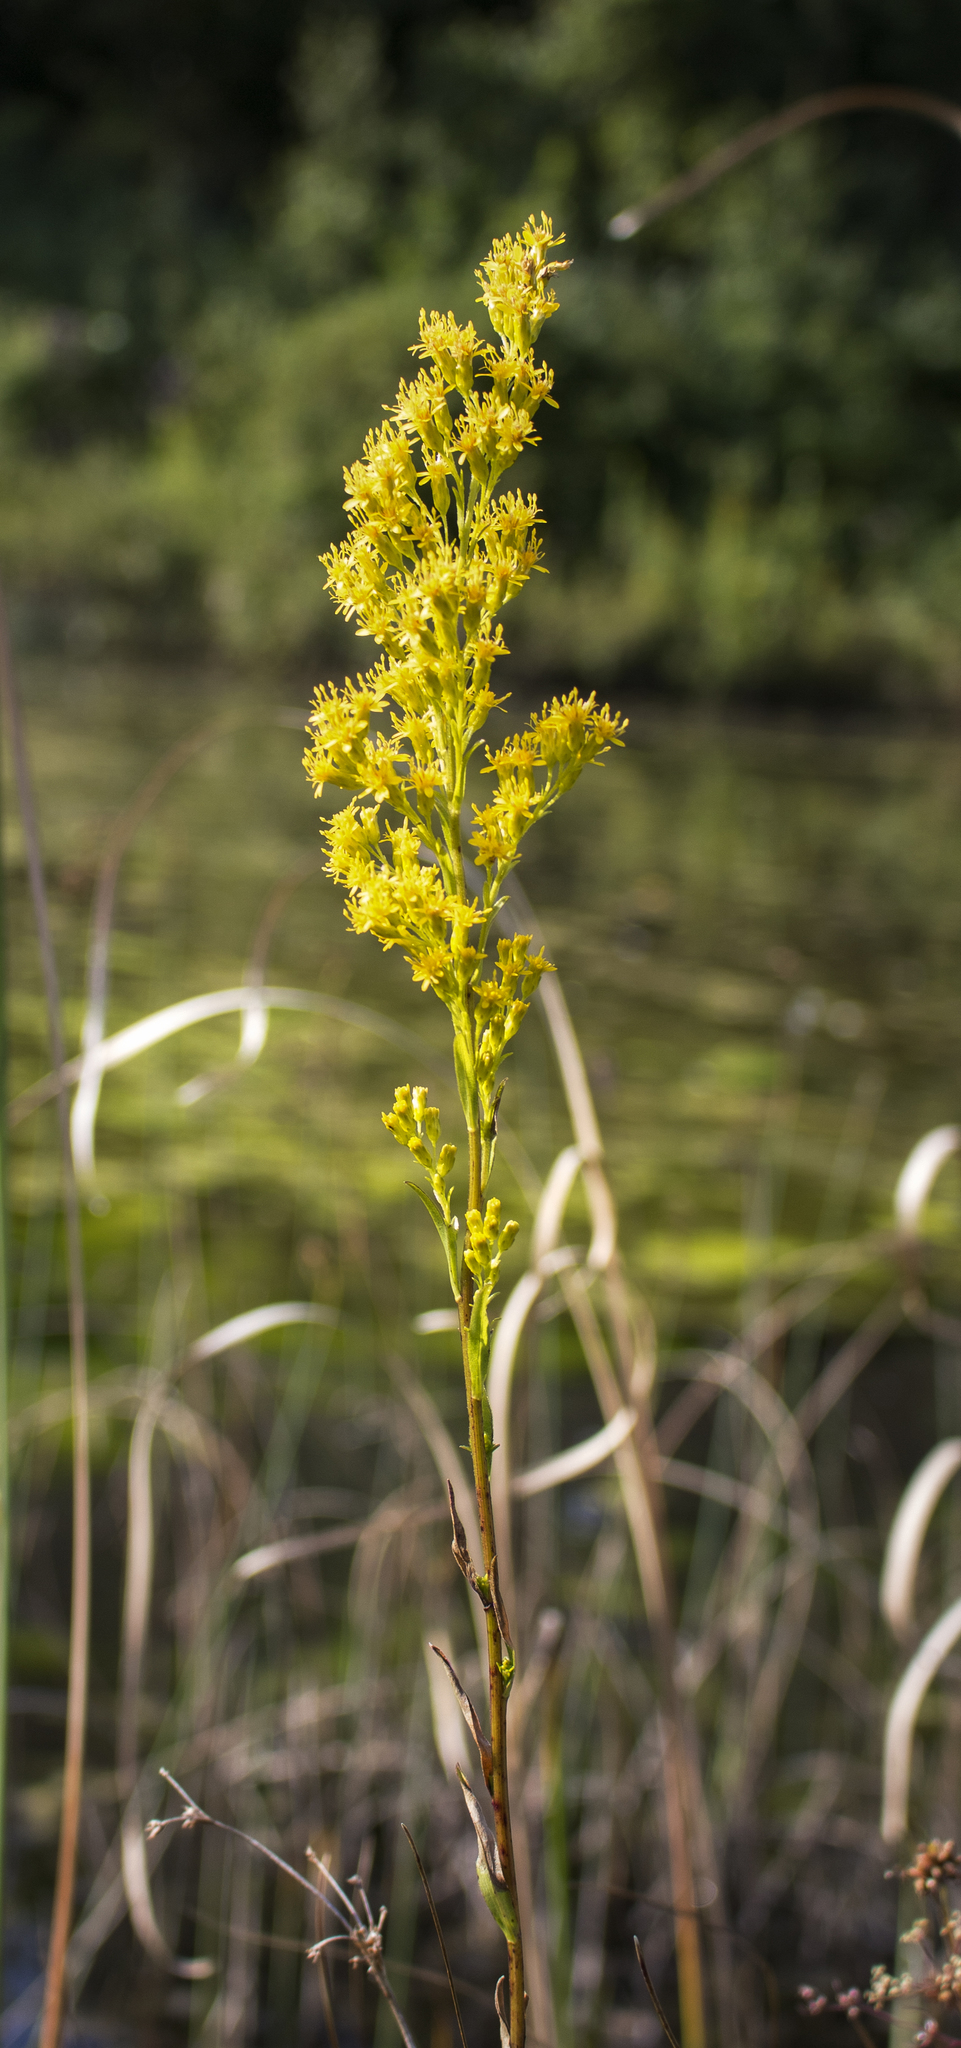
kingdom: Plantae
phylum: Tracheophyta
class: Magnoliopsida
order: Asterales
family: Asteraceae
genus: Solidago
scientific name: Solidago uliginosa
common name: Bog goldenrod
